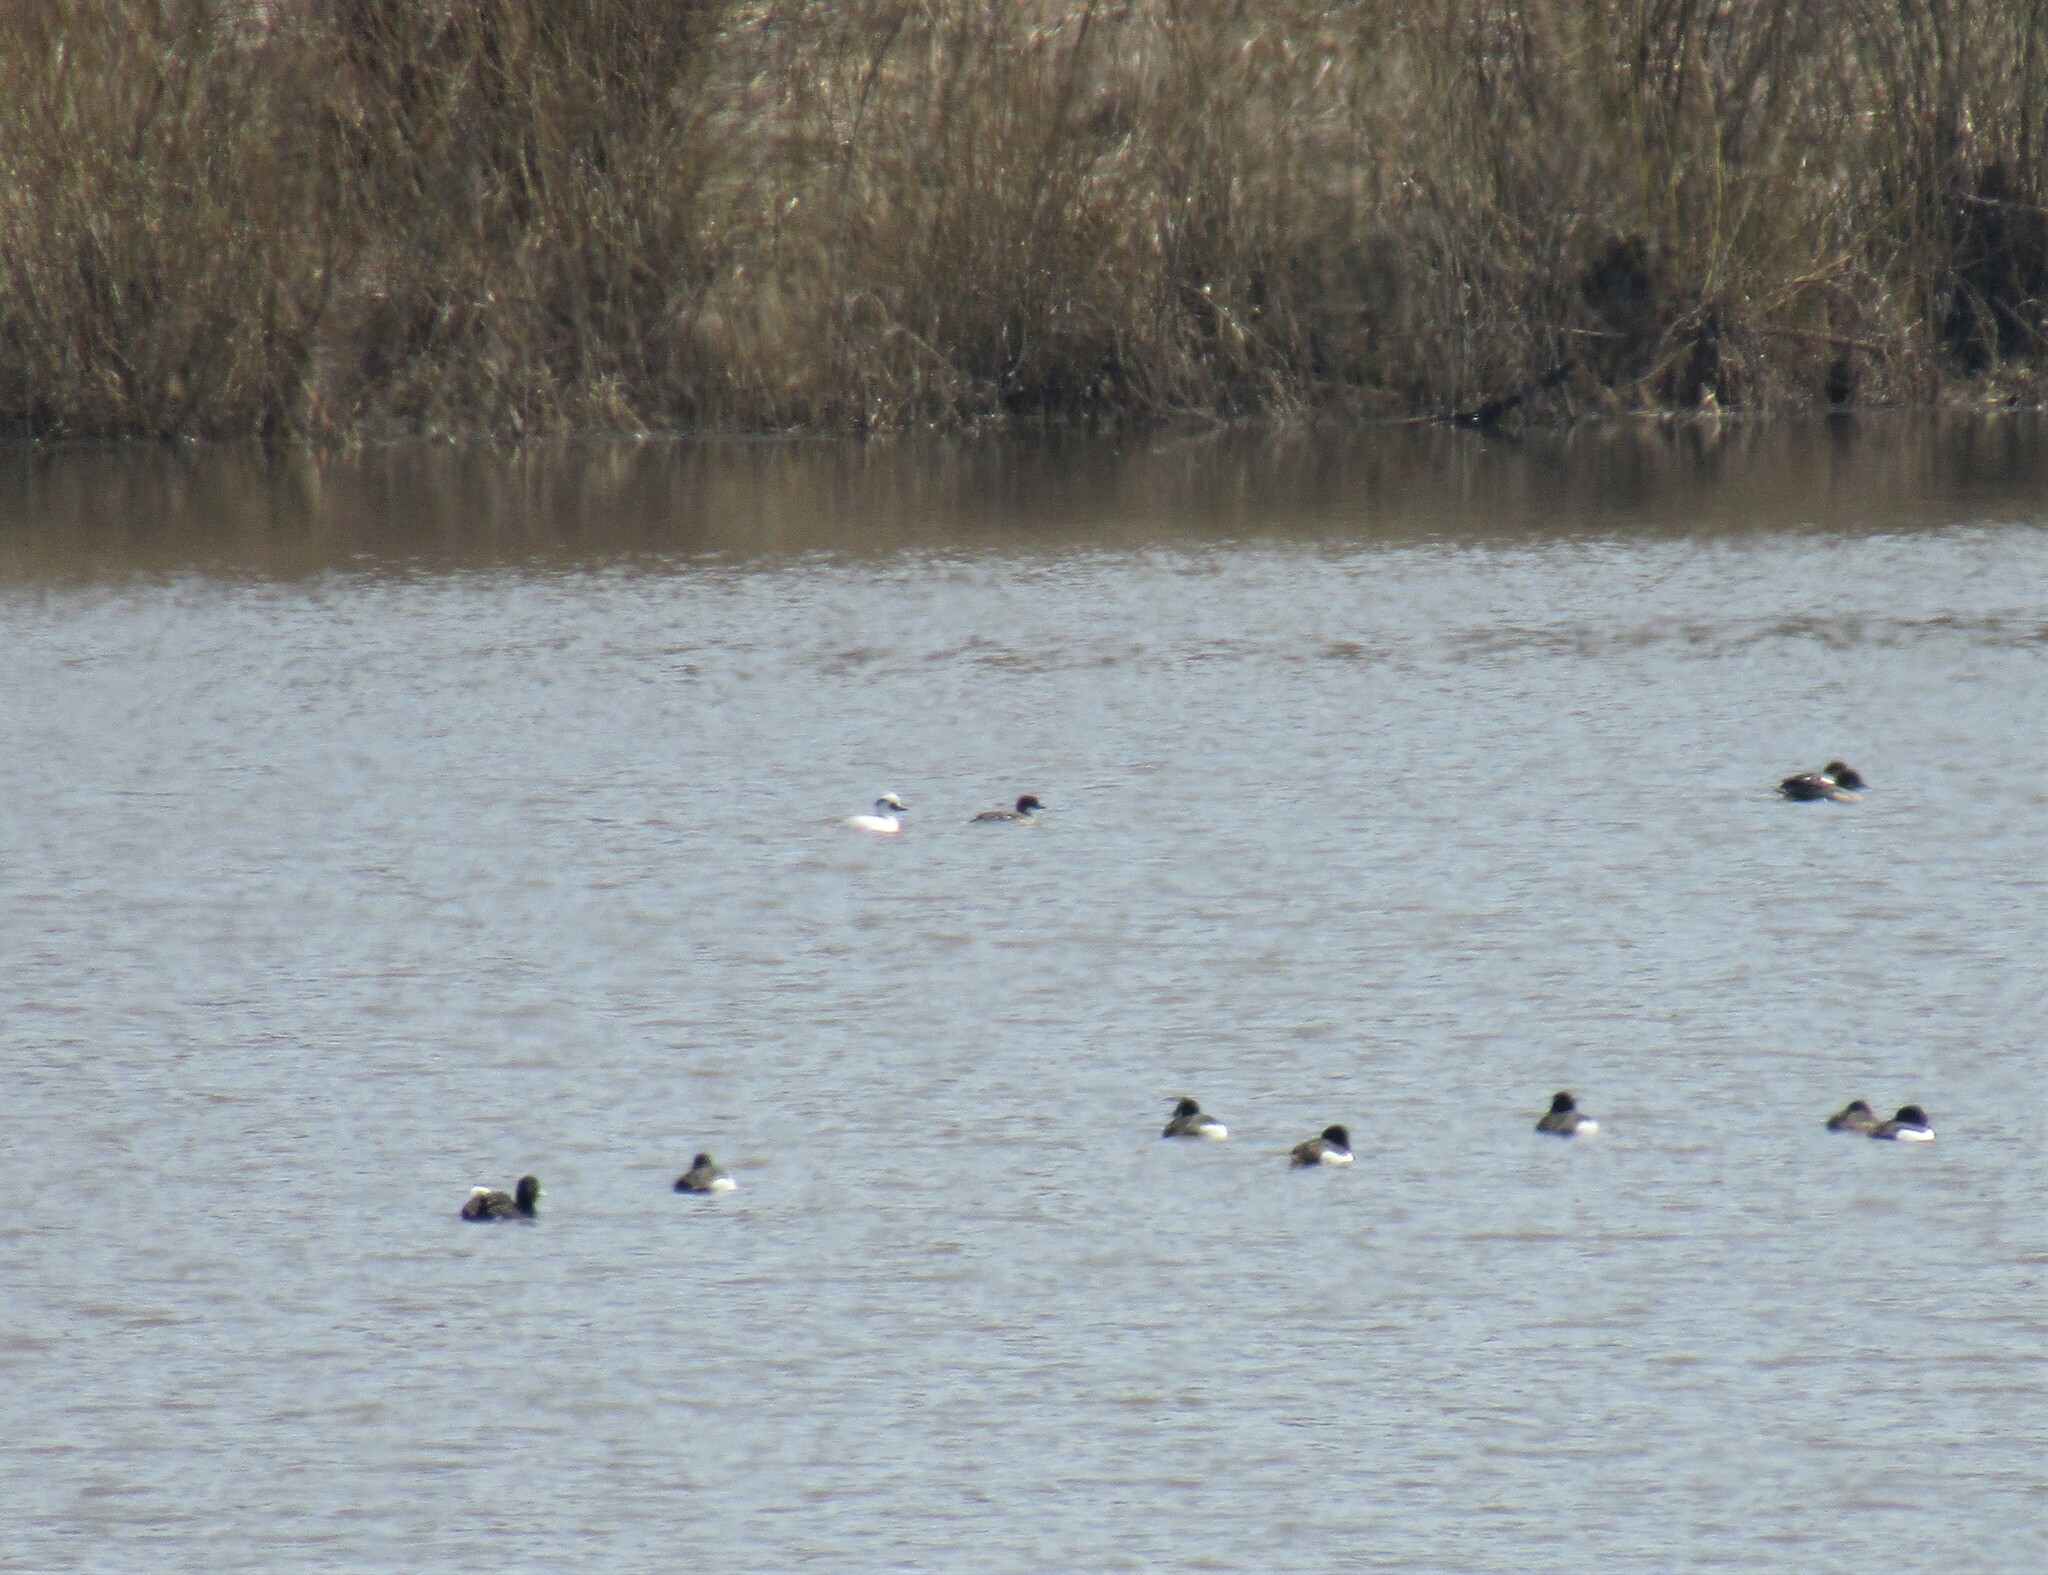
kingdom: Animalia
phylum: Chordata
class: Aves
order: Anseriformes
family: Anatidae
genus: Mergellus
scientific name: Mergellus albellus
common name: Smew
